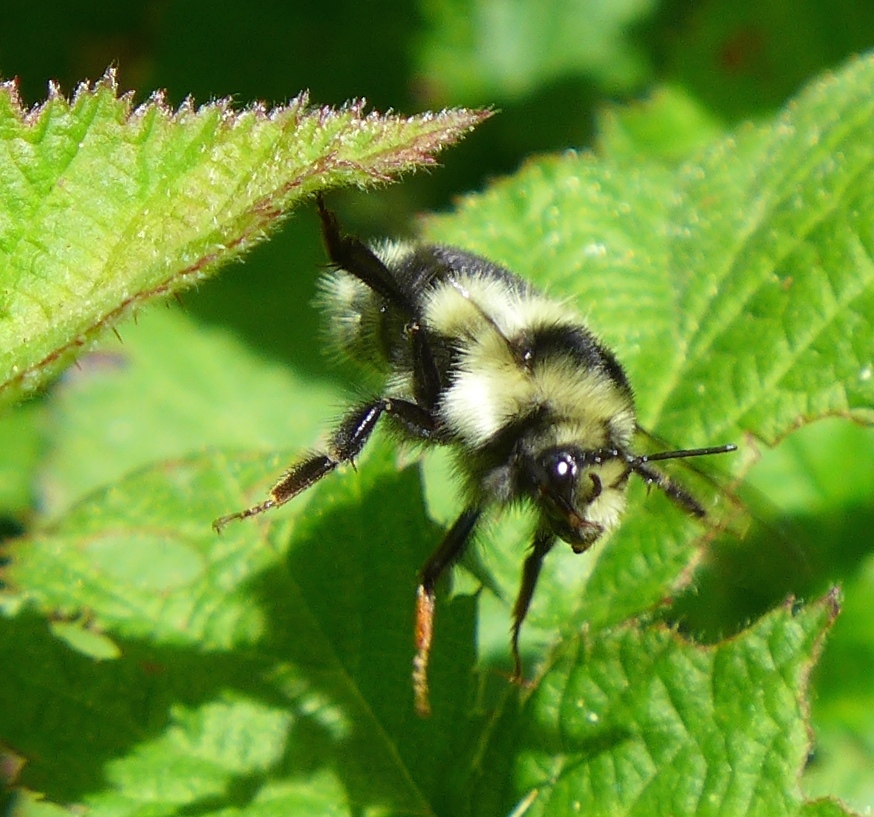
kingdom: Animalia
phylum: Arthropoda
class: Insecta
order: Hymenoptera
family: Apidae
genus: Bombus
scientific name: Bombus melanopygus
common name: Black tail bumble bee
